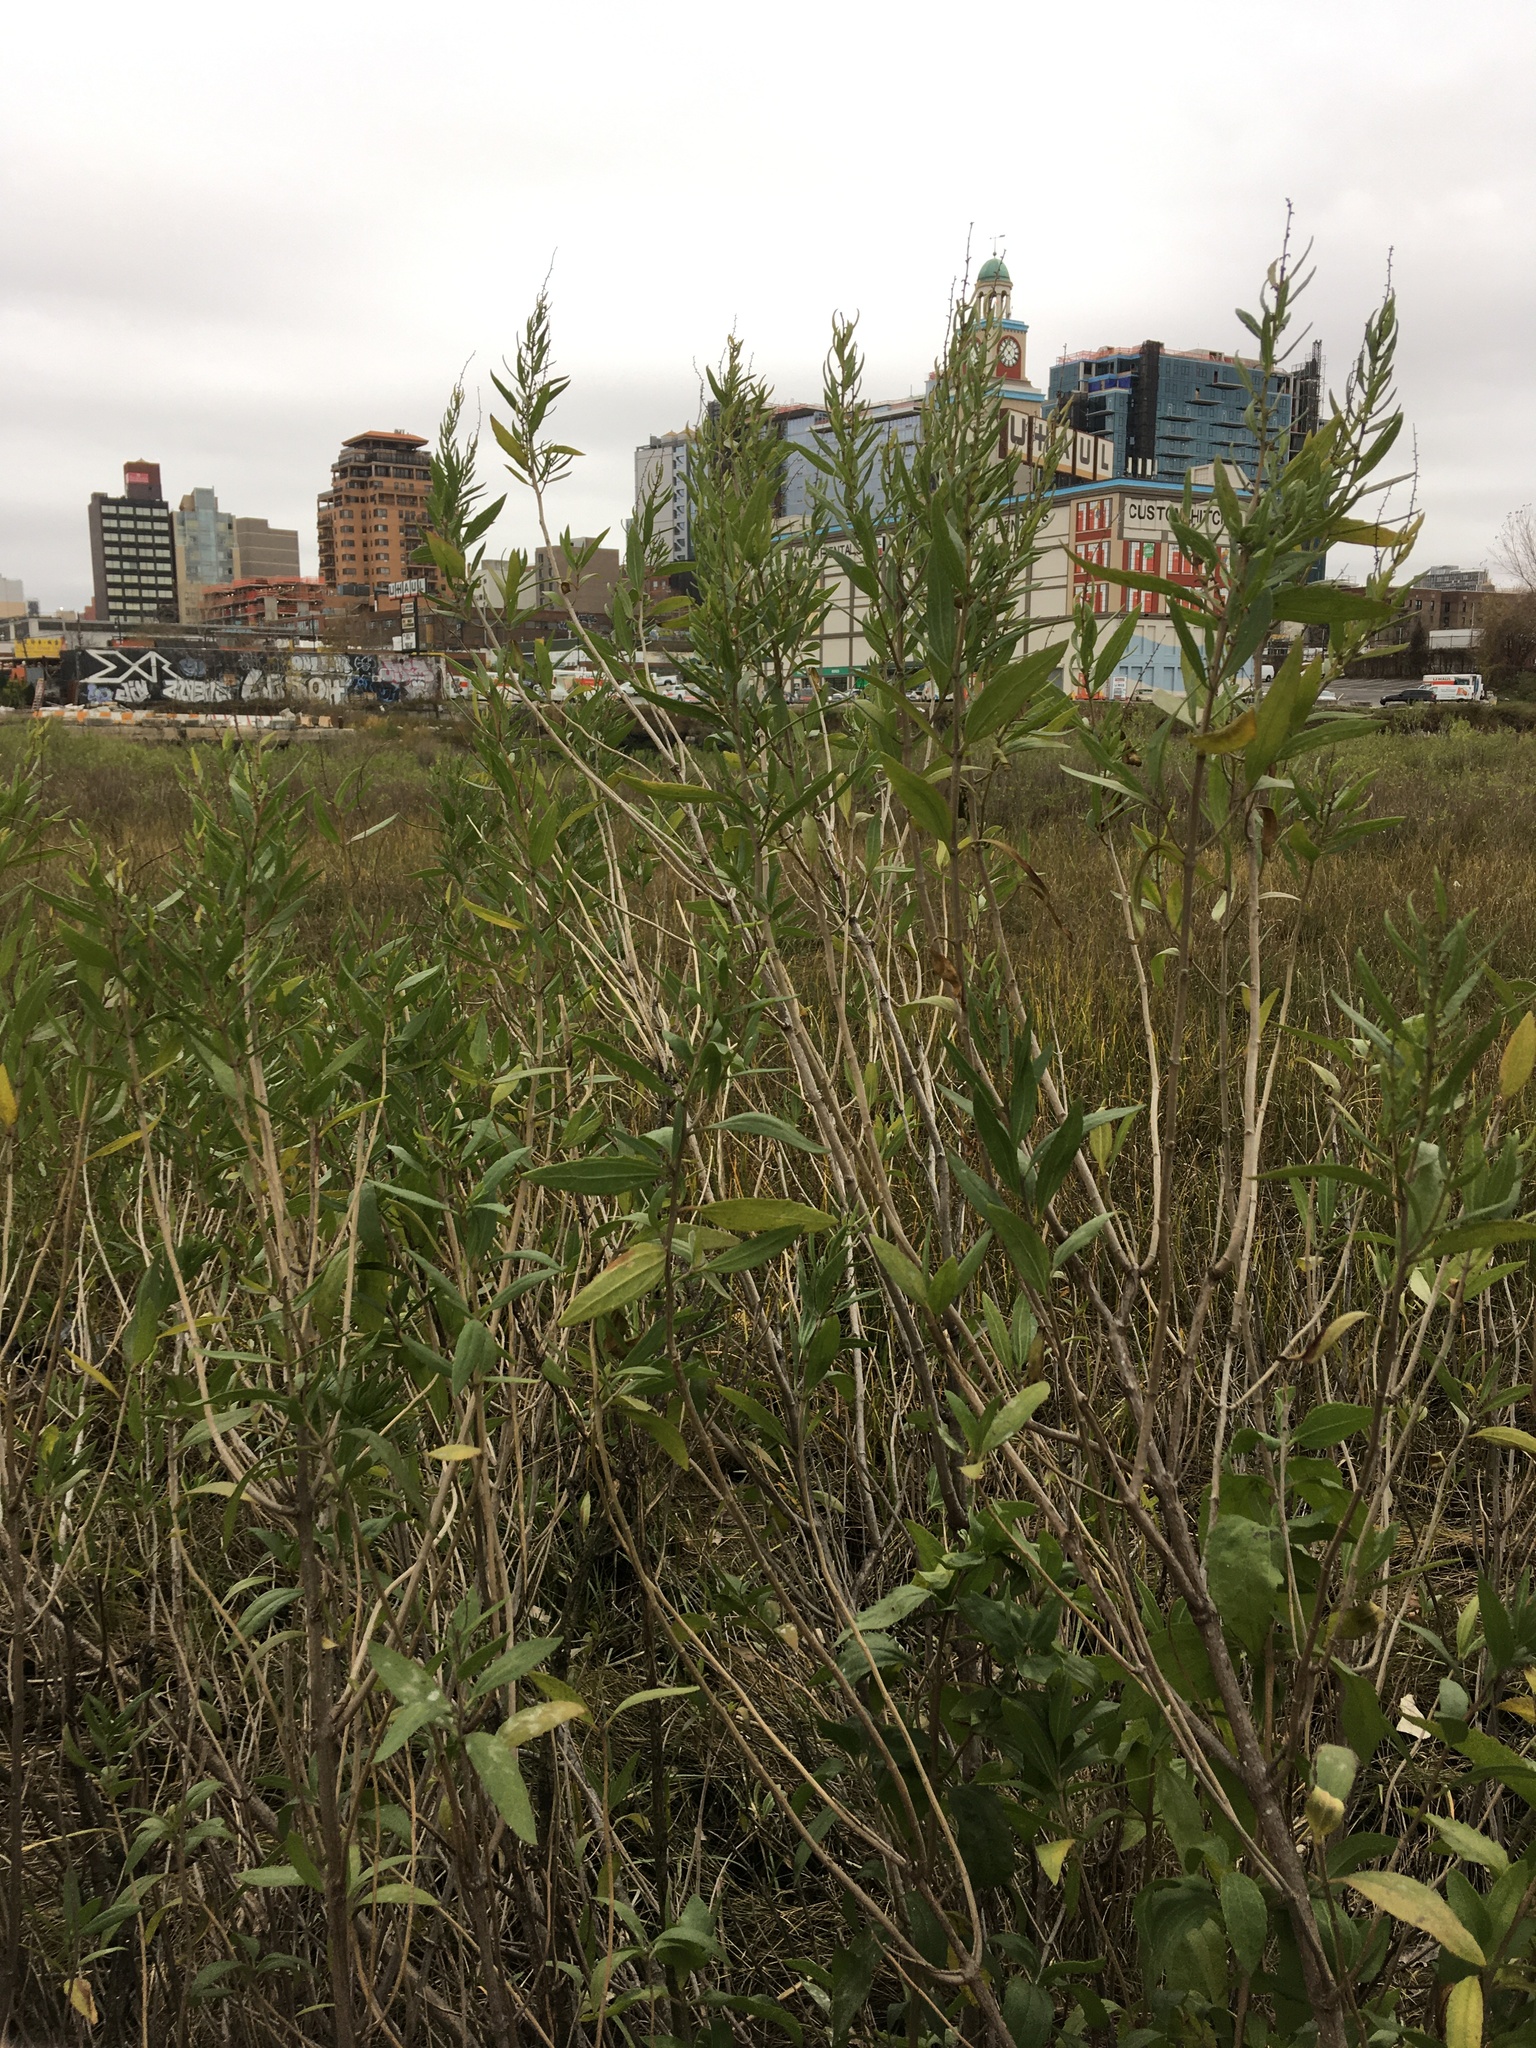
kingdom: Plantae
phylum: Tracheophyta
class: Magnoliopsida
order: Asterales
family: Asteraceae
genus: Iva
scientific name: Iva frutescens
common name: Big-leaved marsh-elder
